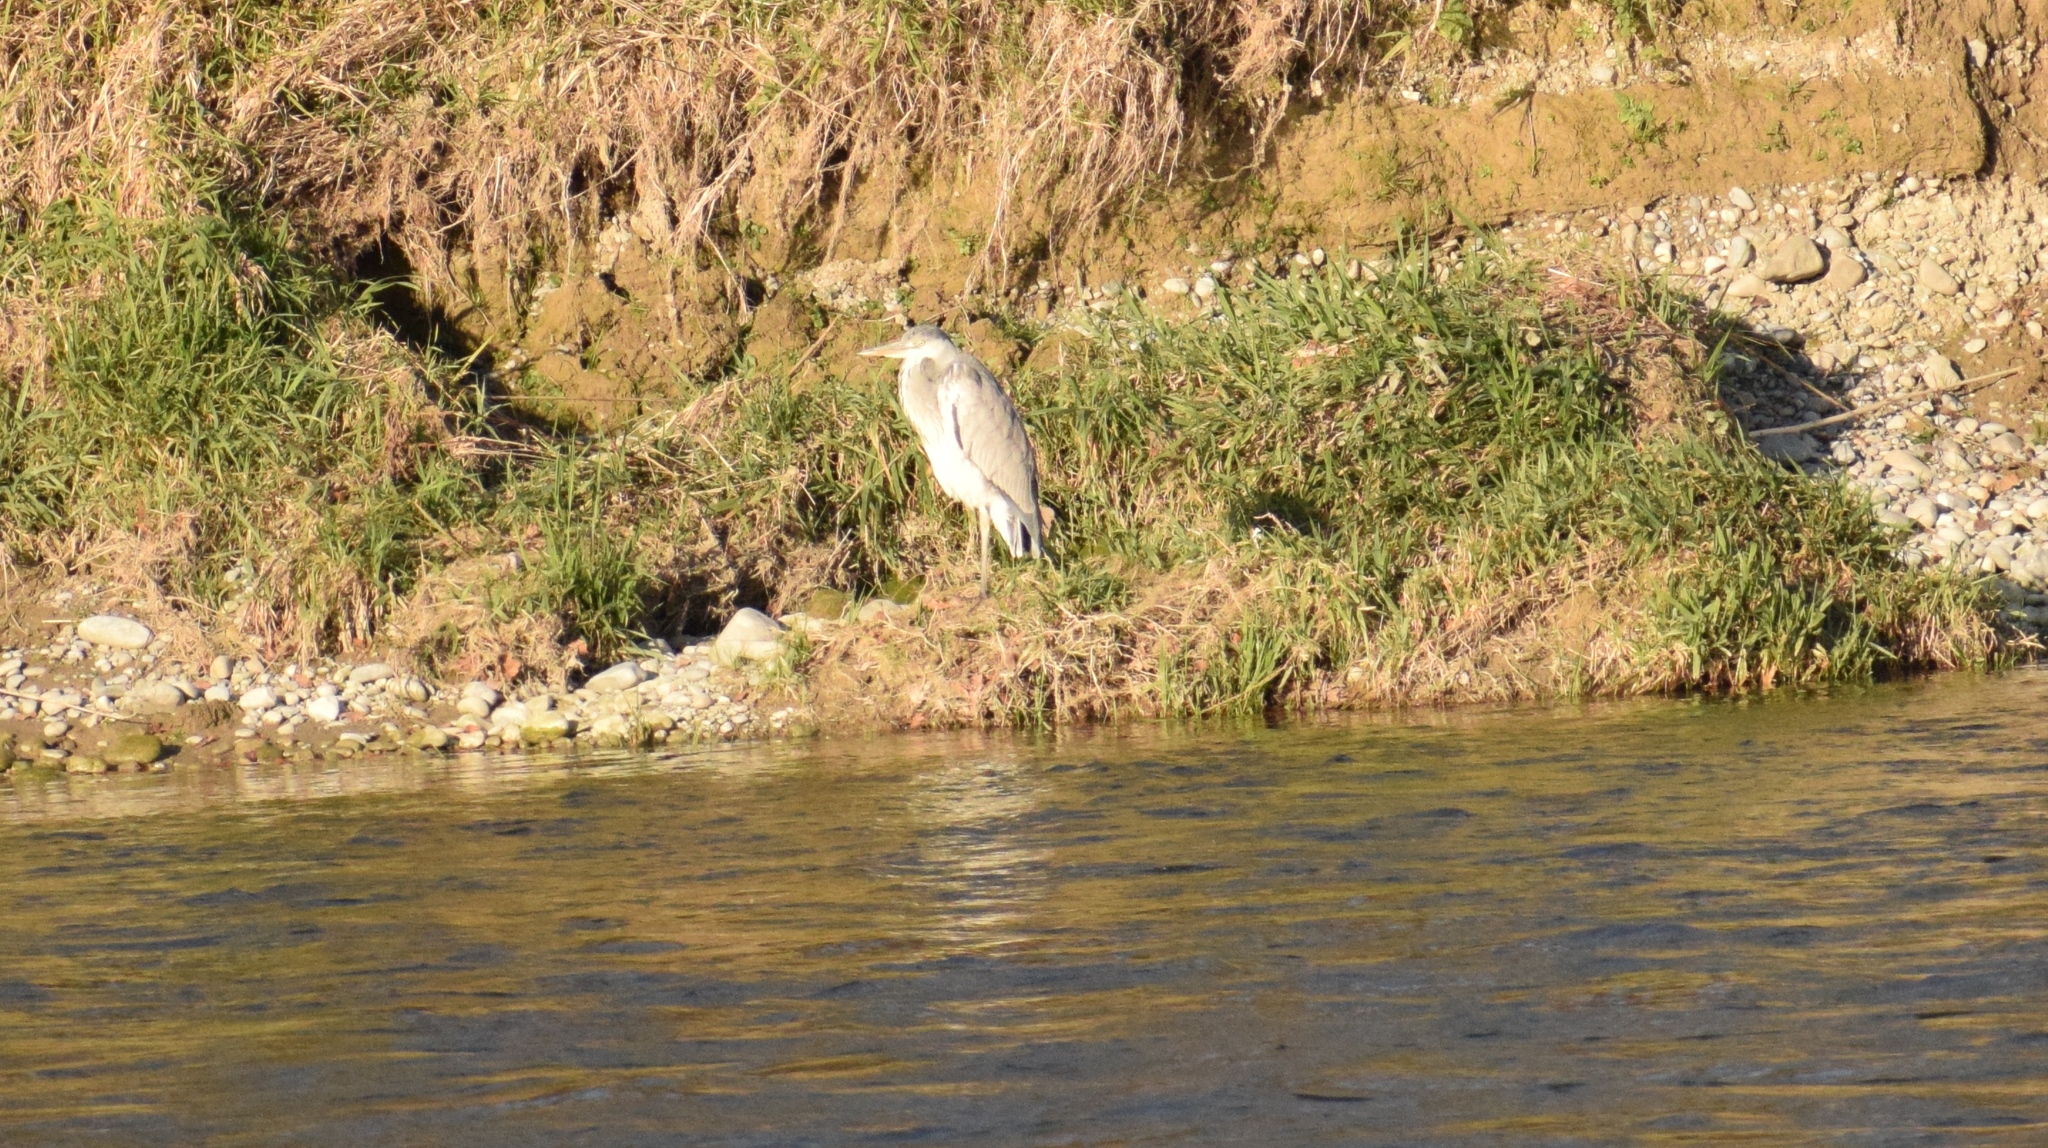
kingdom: Animalia
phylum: Chordata
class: Aves
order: Pelecaniformes
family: Ardeidae
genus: Ardea
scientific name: Ardea cinerea
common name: Grey heron
